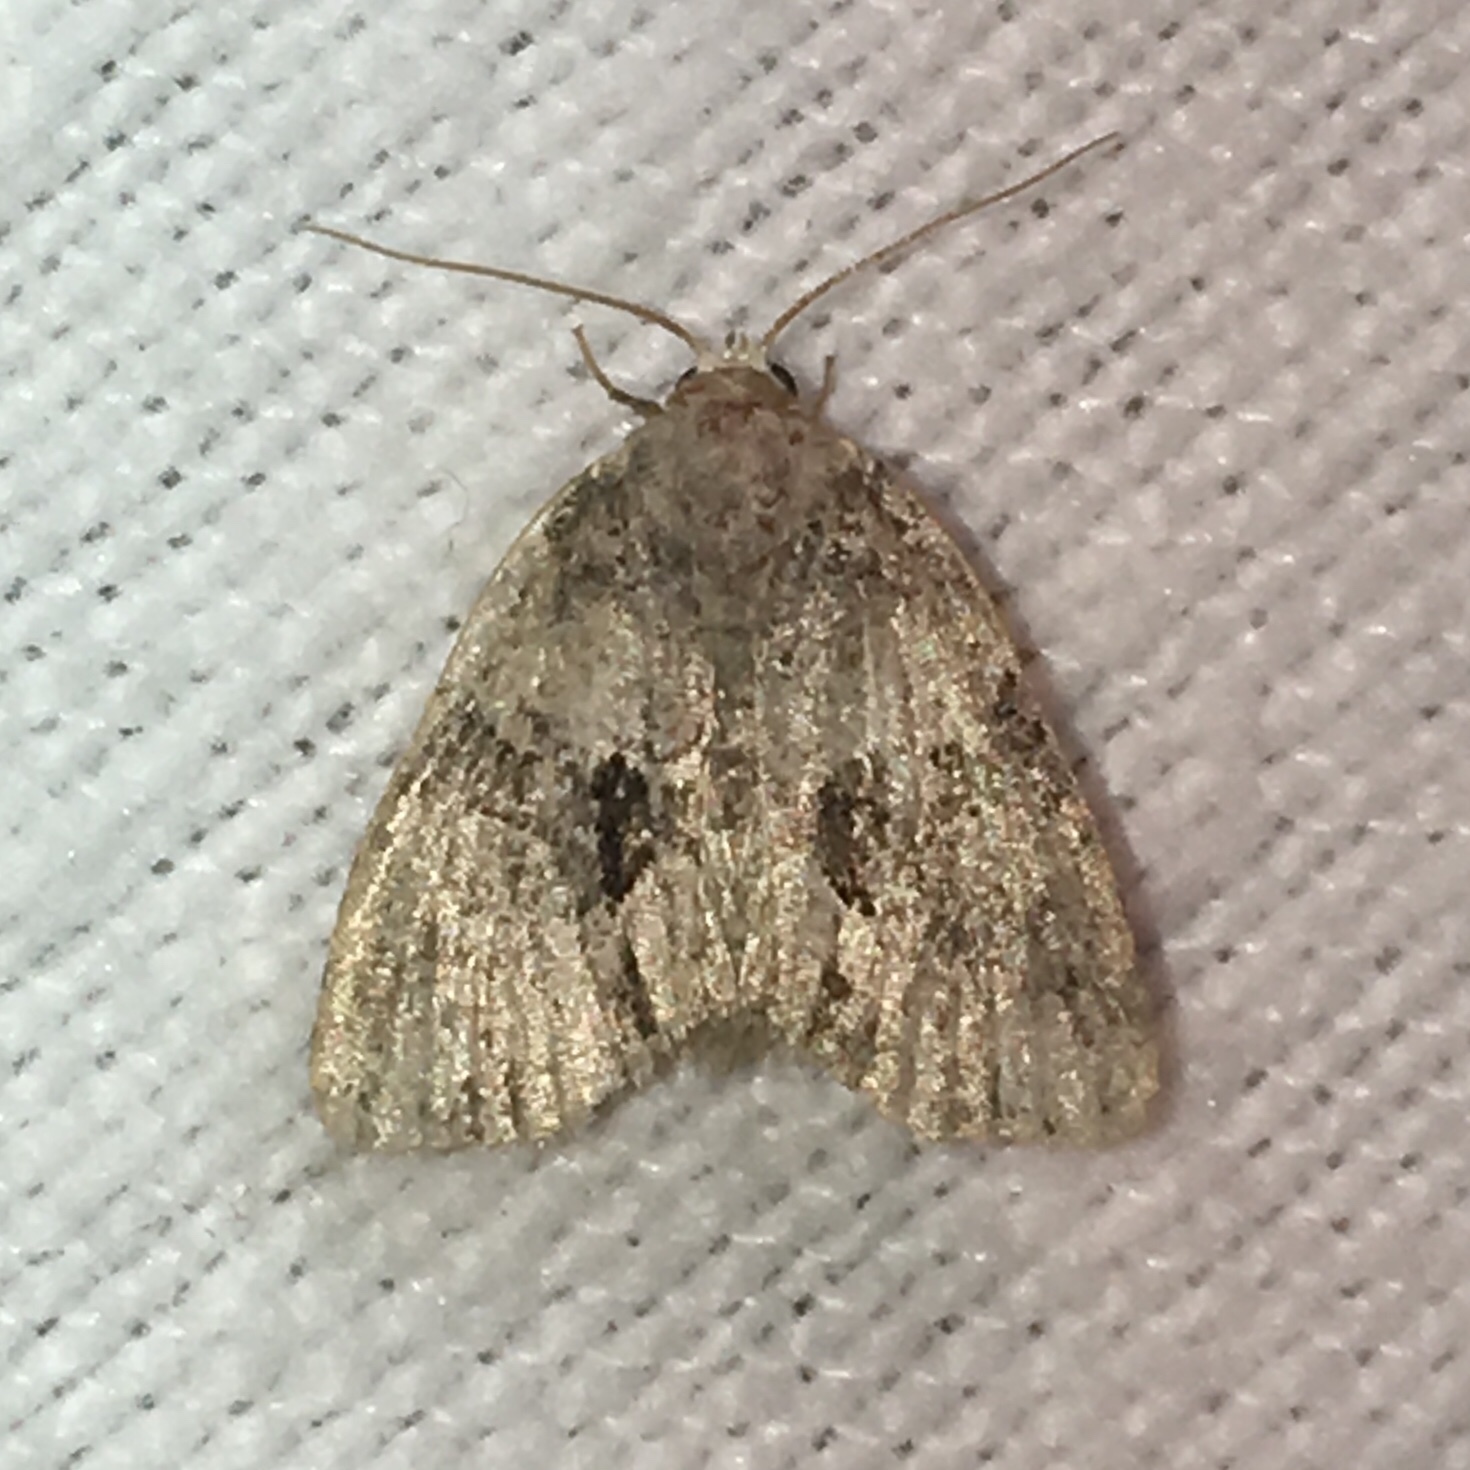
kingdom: Animalia
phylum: Arthropoda
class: Insecta
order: Lepidoptera
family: Noctuidae
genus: Neoligia
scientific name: Neoligia exhausta
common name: Exhausted brocade
